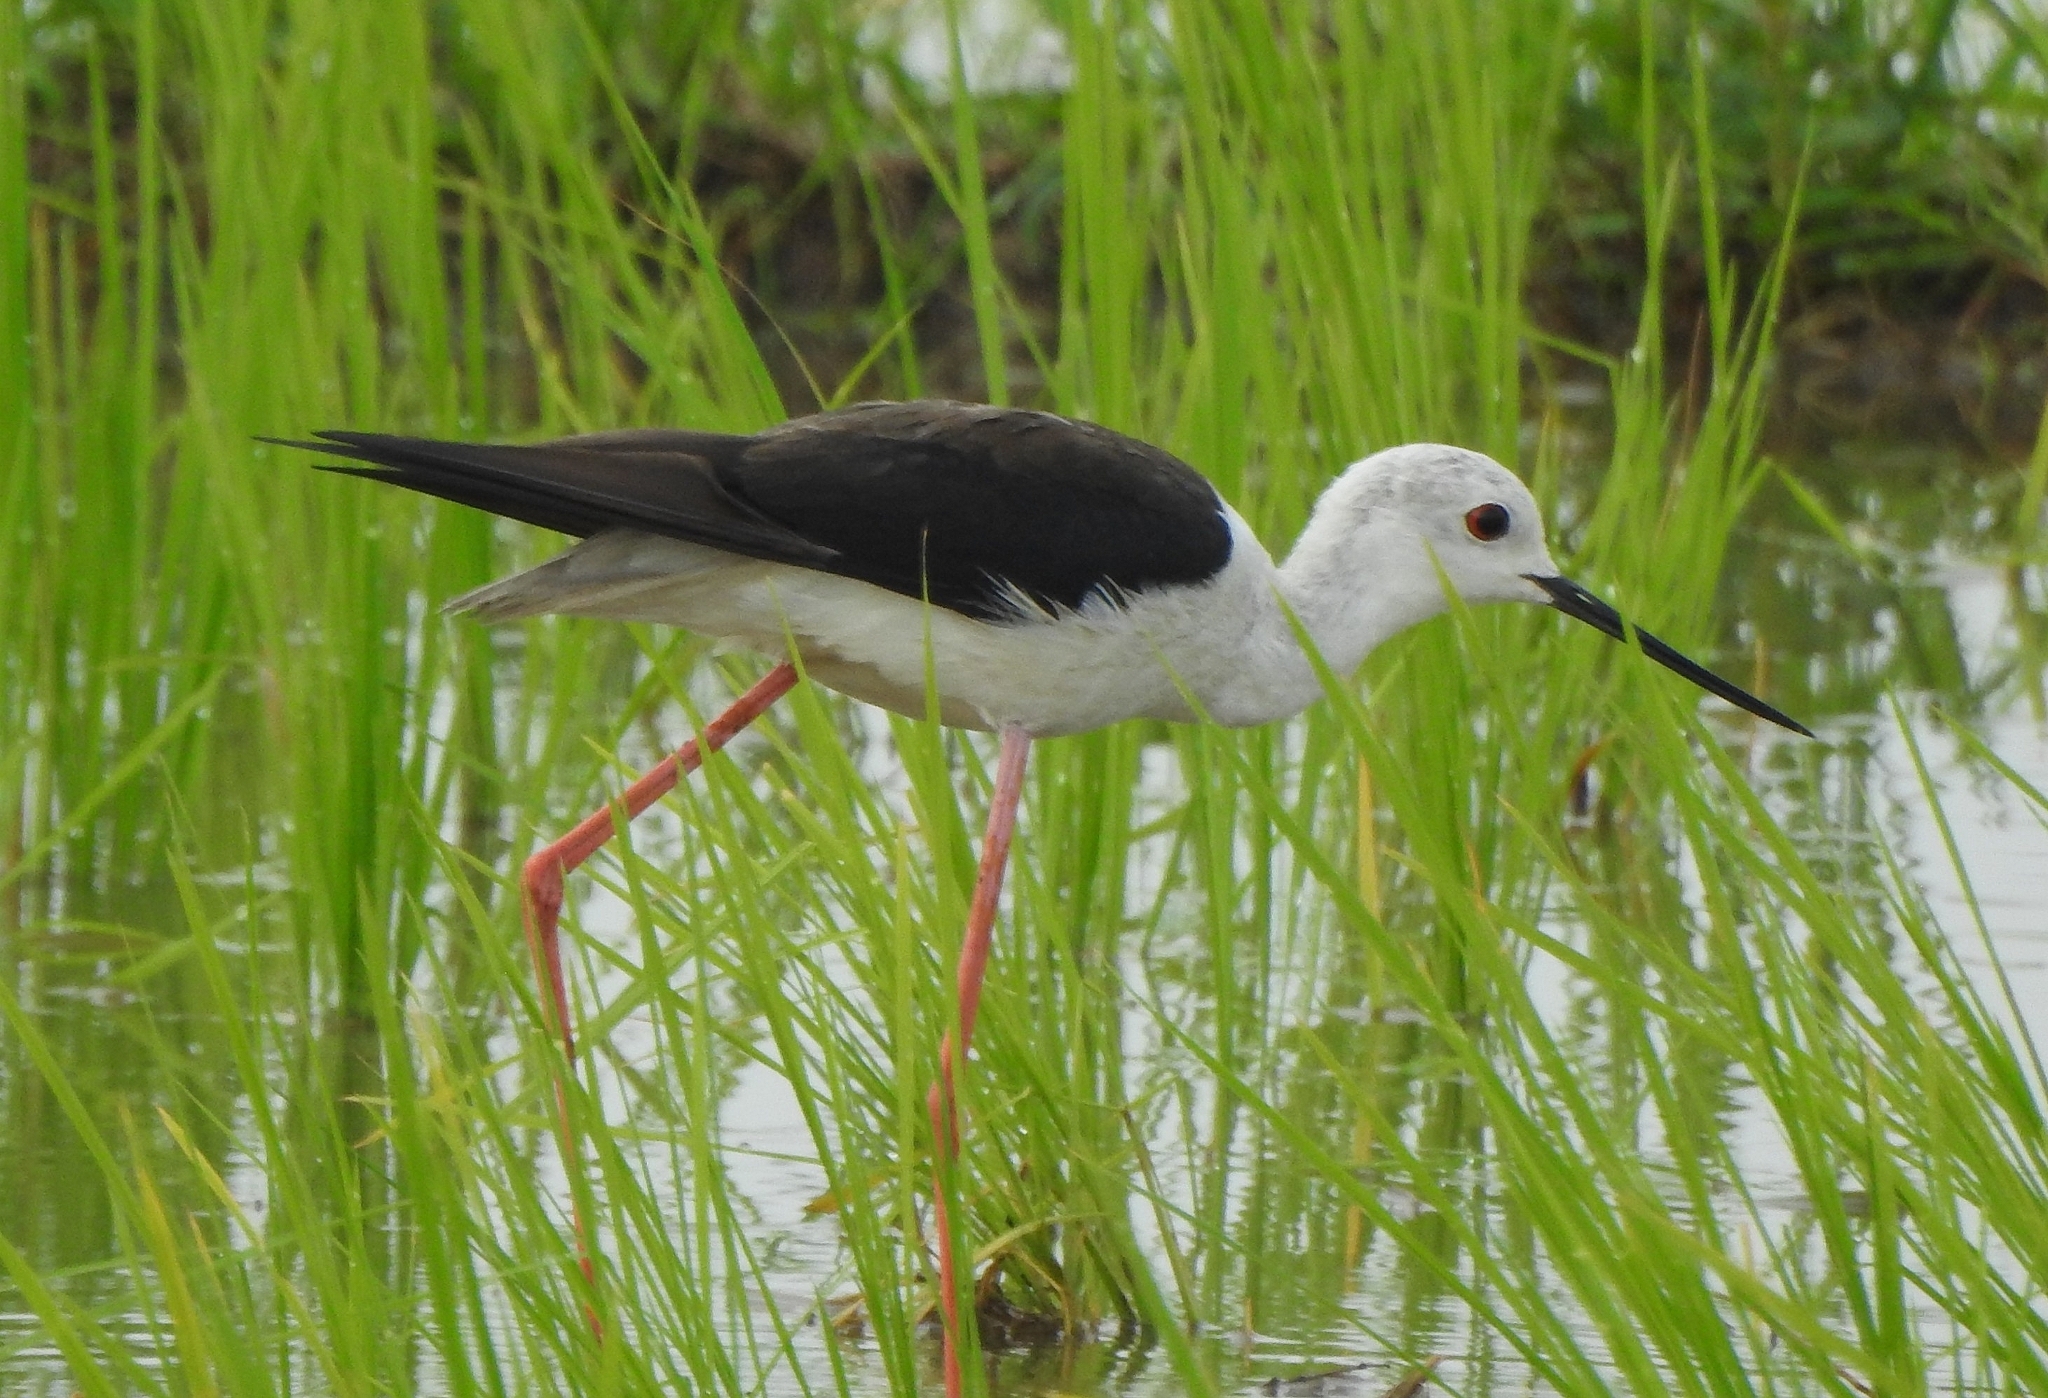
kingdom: Animalia
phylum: Chordata
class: Aves
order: Charadriiformes
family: Recurvirostridae
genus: Himantopus
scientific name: Himantopus himantopus
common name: Black-winged stilt
